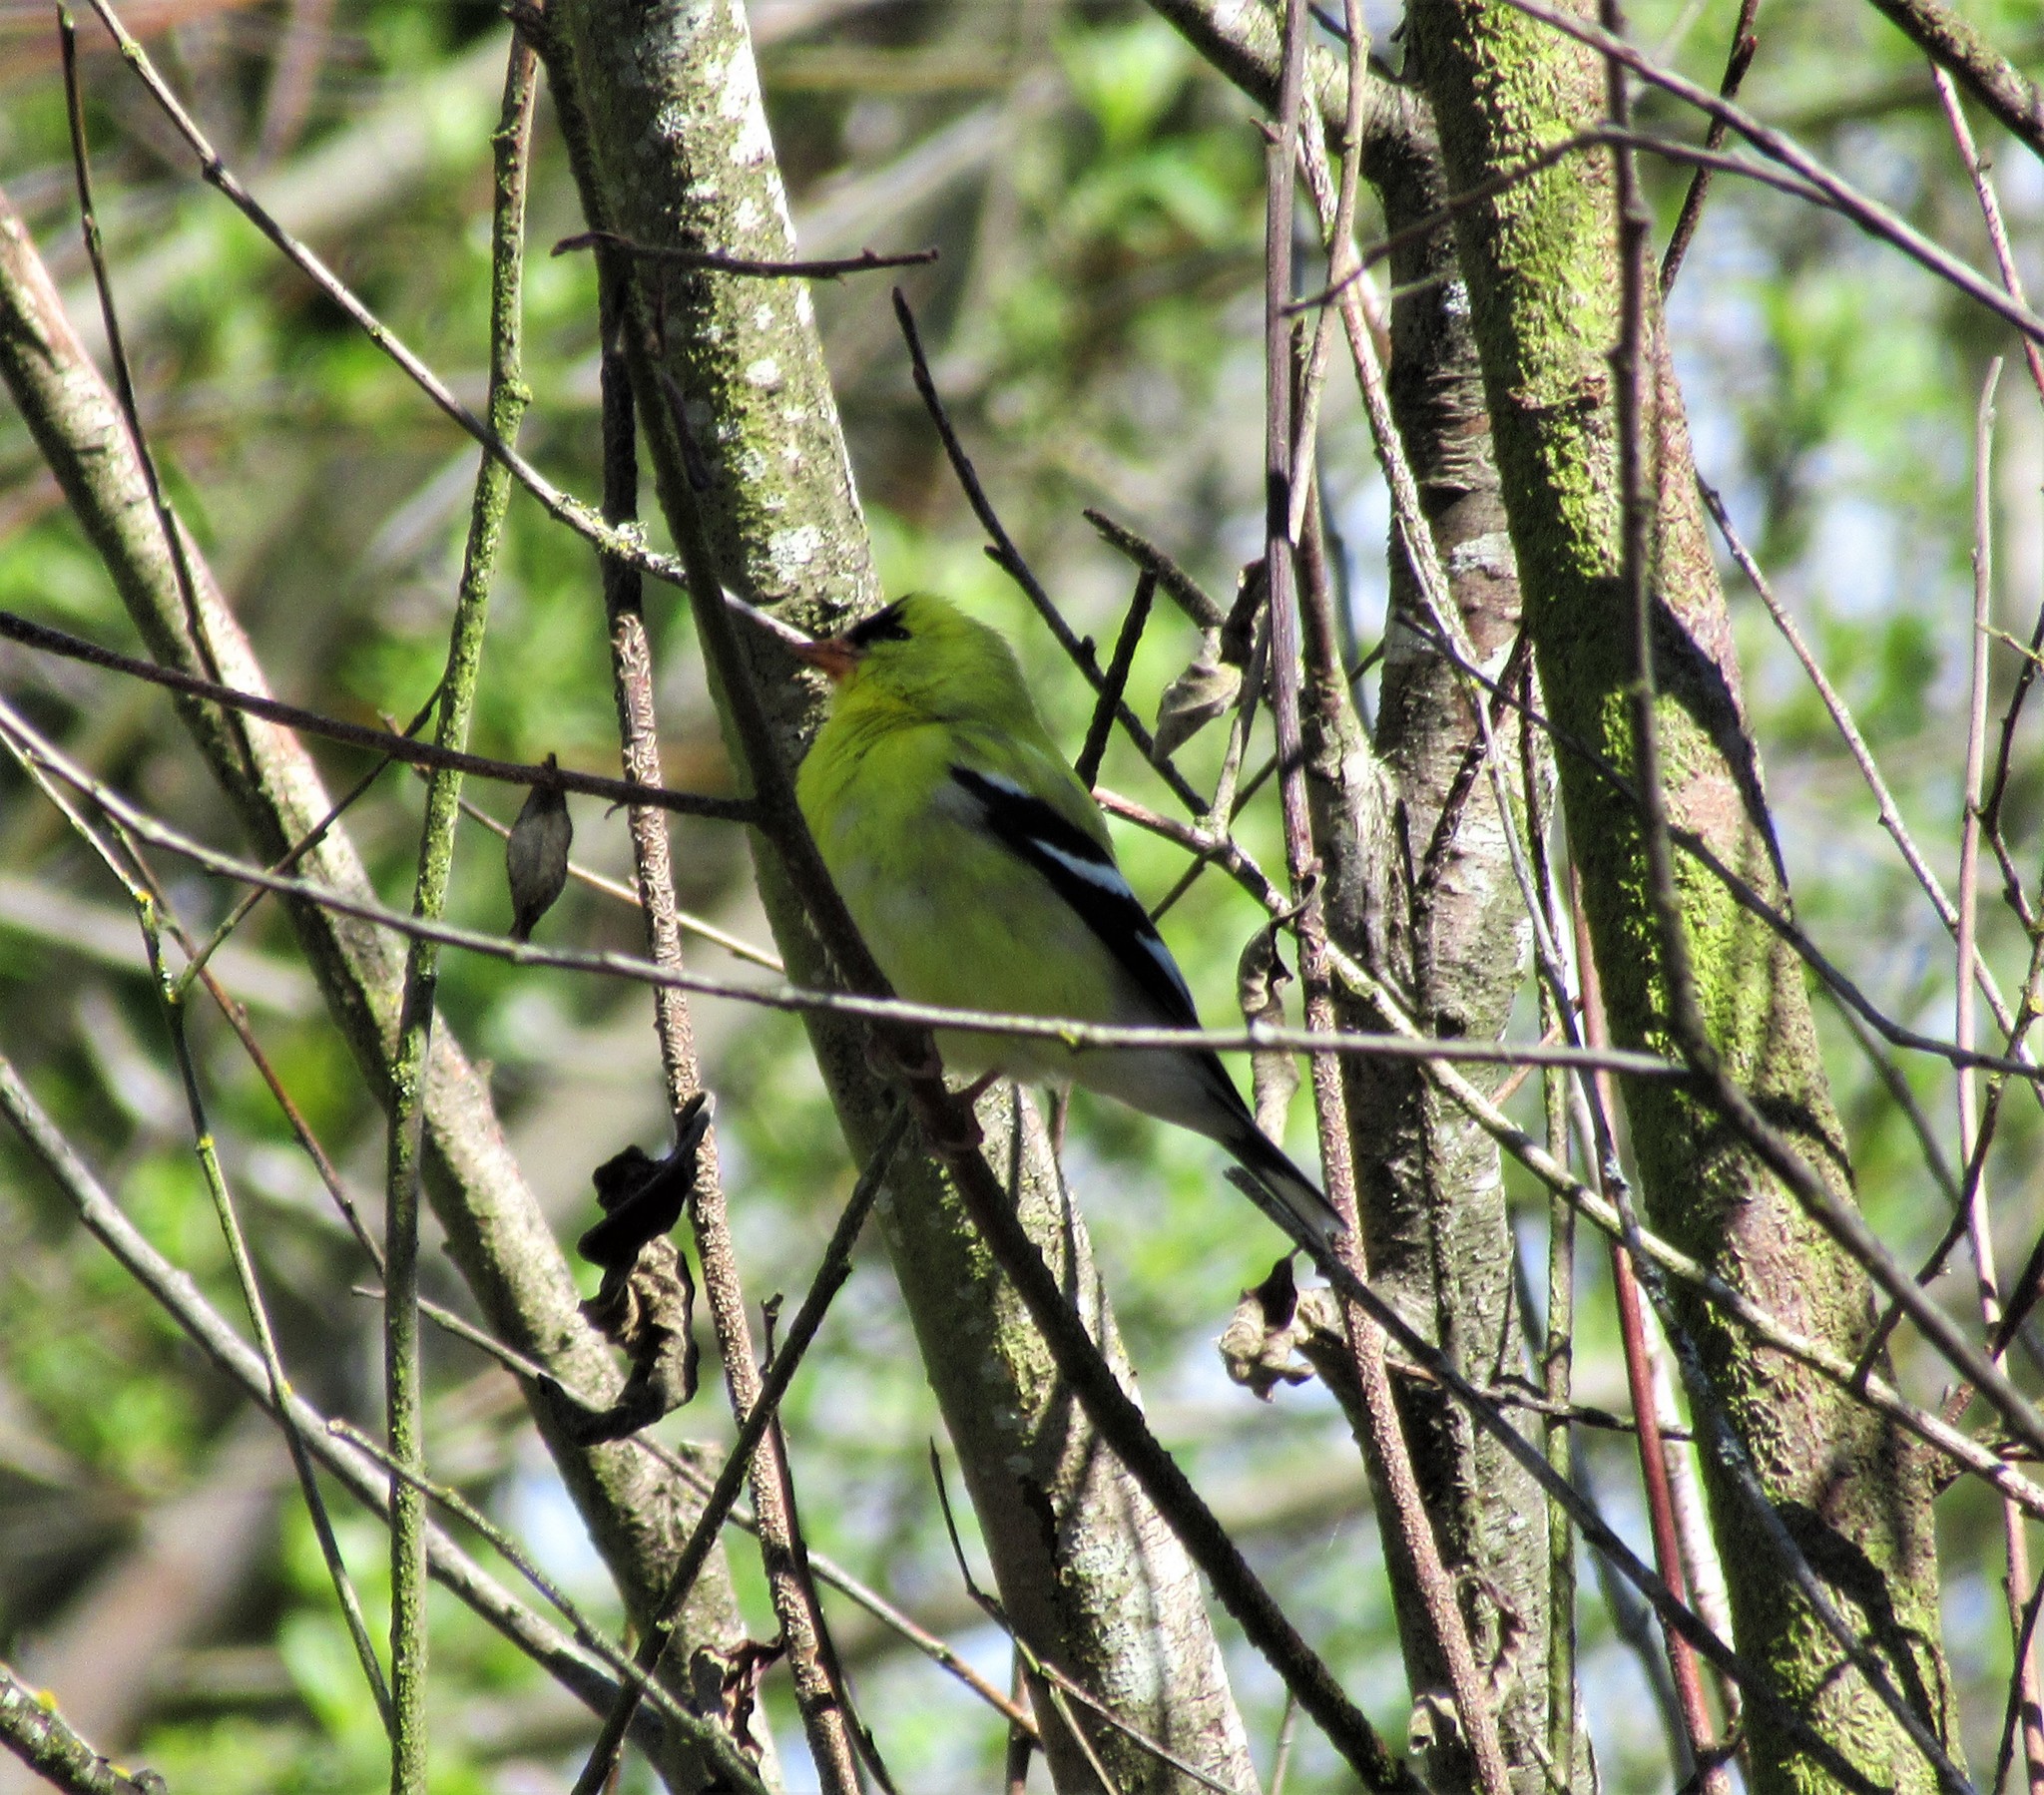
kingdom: Animalia
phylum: Chordata
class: Aves
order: Passeriformes
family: Fringillidae
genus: Spinus
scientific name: Spinus tristis
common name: American goldfinch
